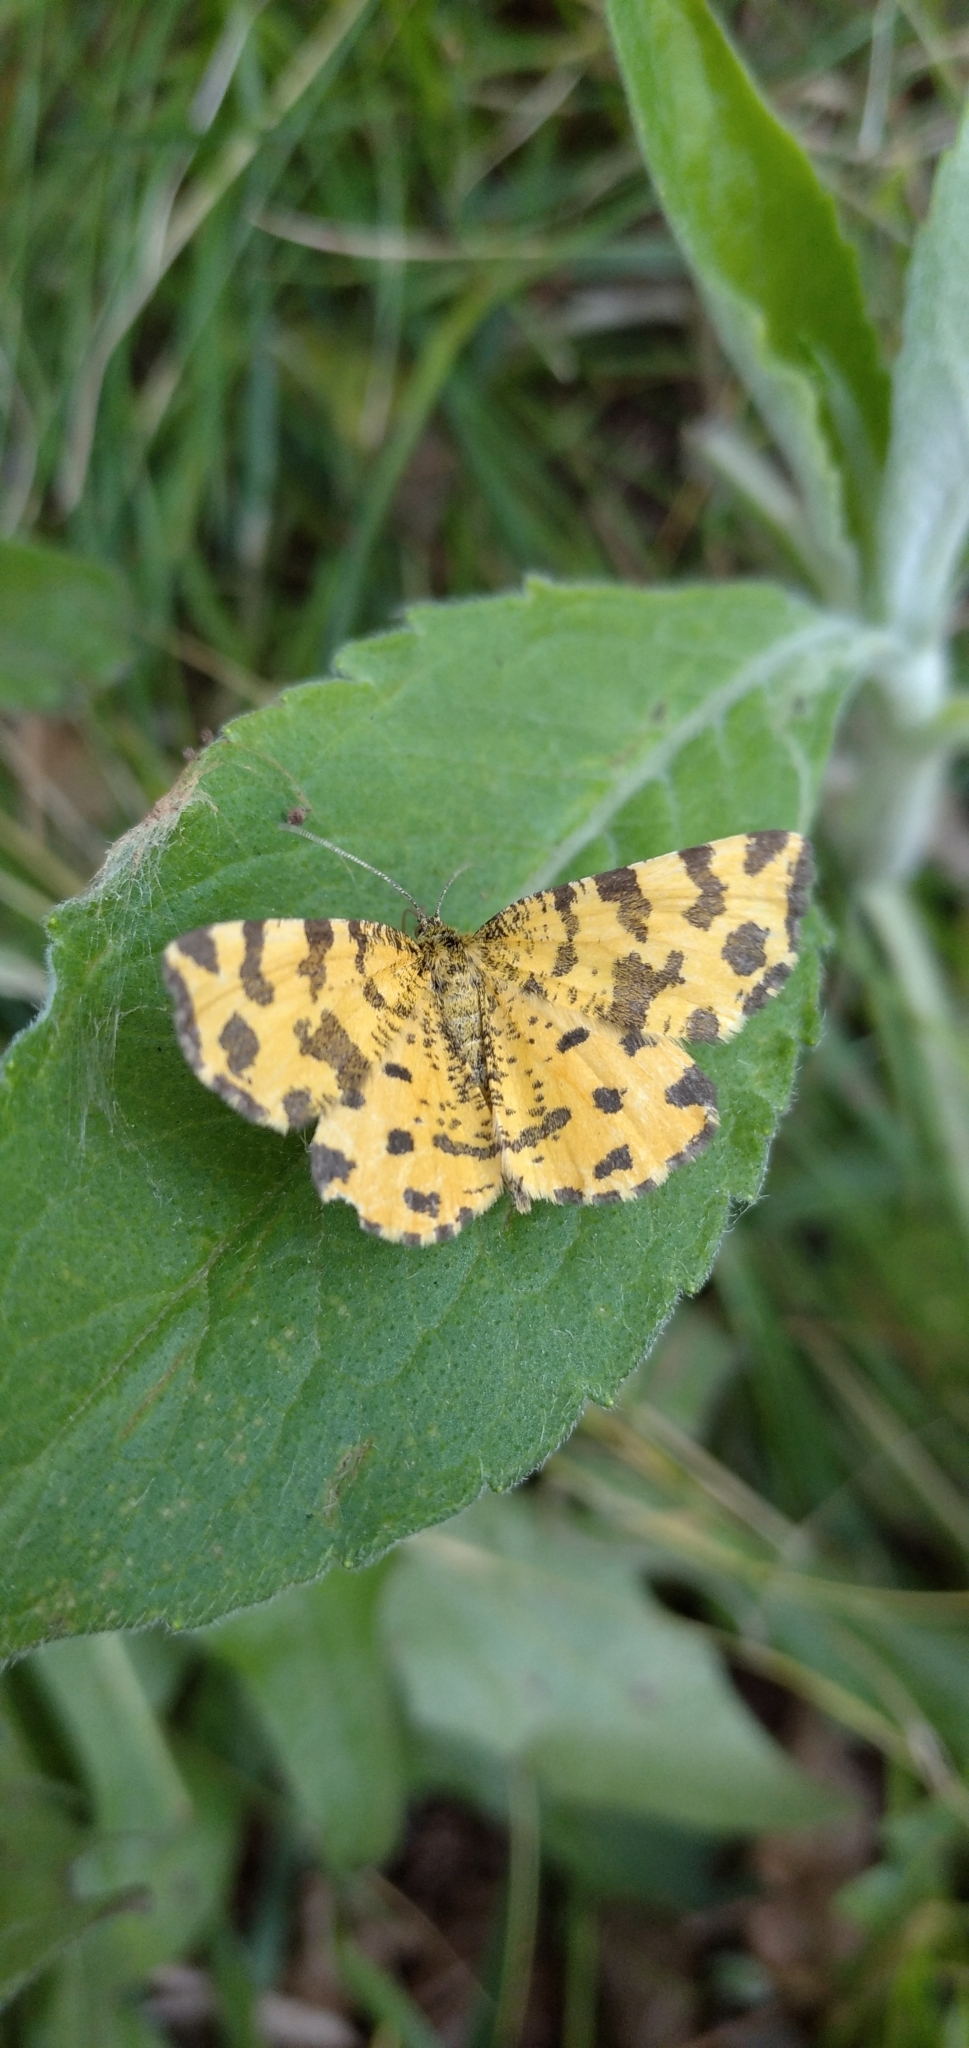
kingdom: Animalia
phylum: Arthropoda
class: Insecta
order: Lepidoptera
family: Geometridae
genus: Pseudopanthera
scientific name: Pseudopanthera macularia
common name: Speckled yellow
